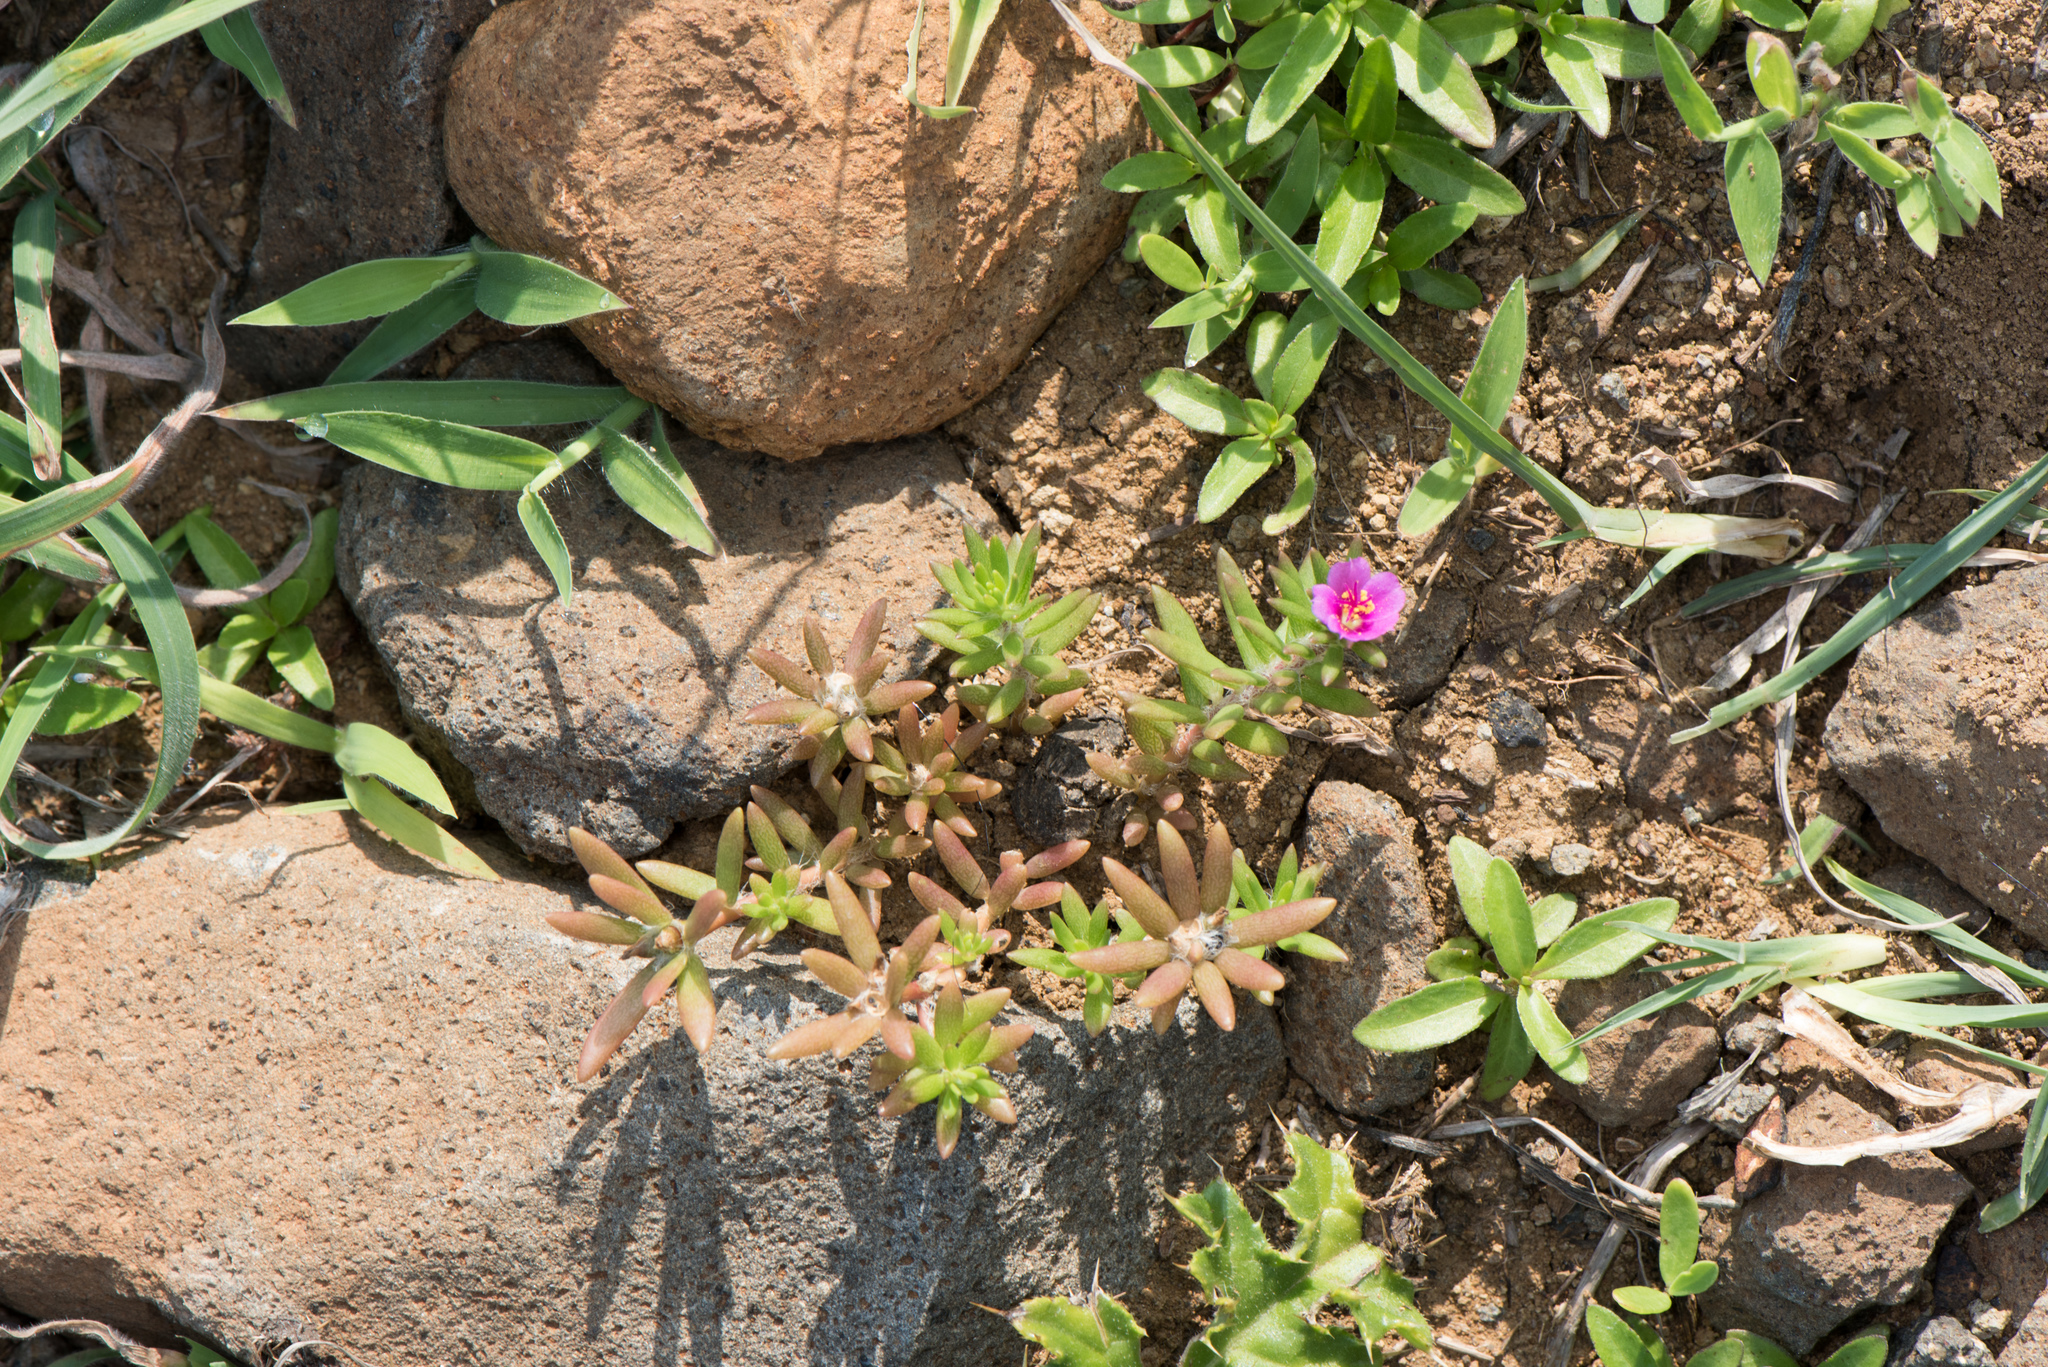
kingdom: Plantae
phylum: Tracheophyta
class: Magnoliopsida
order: Caryophyllales
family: Portulacaceae
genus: Portulaca
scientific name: Portulaca pilosa
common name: Kiss me quick
